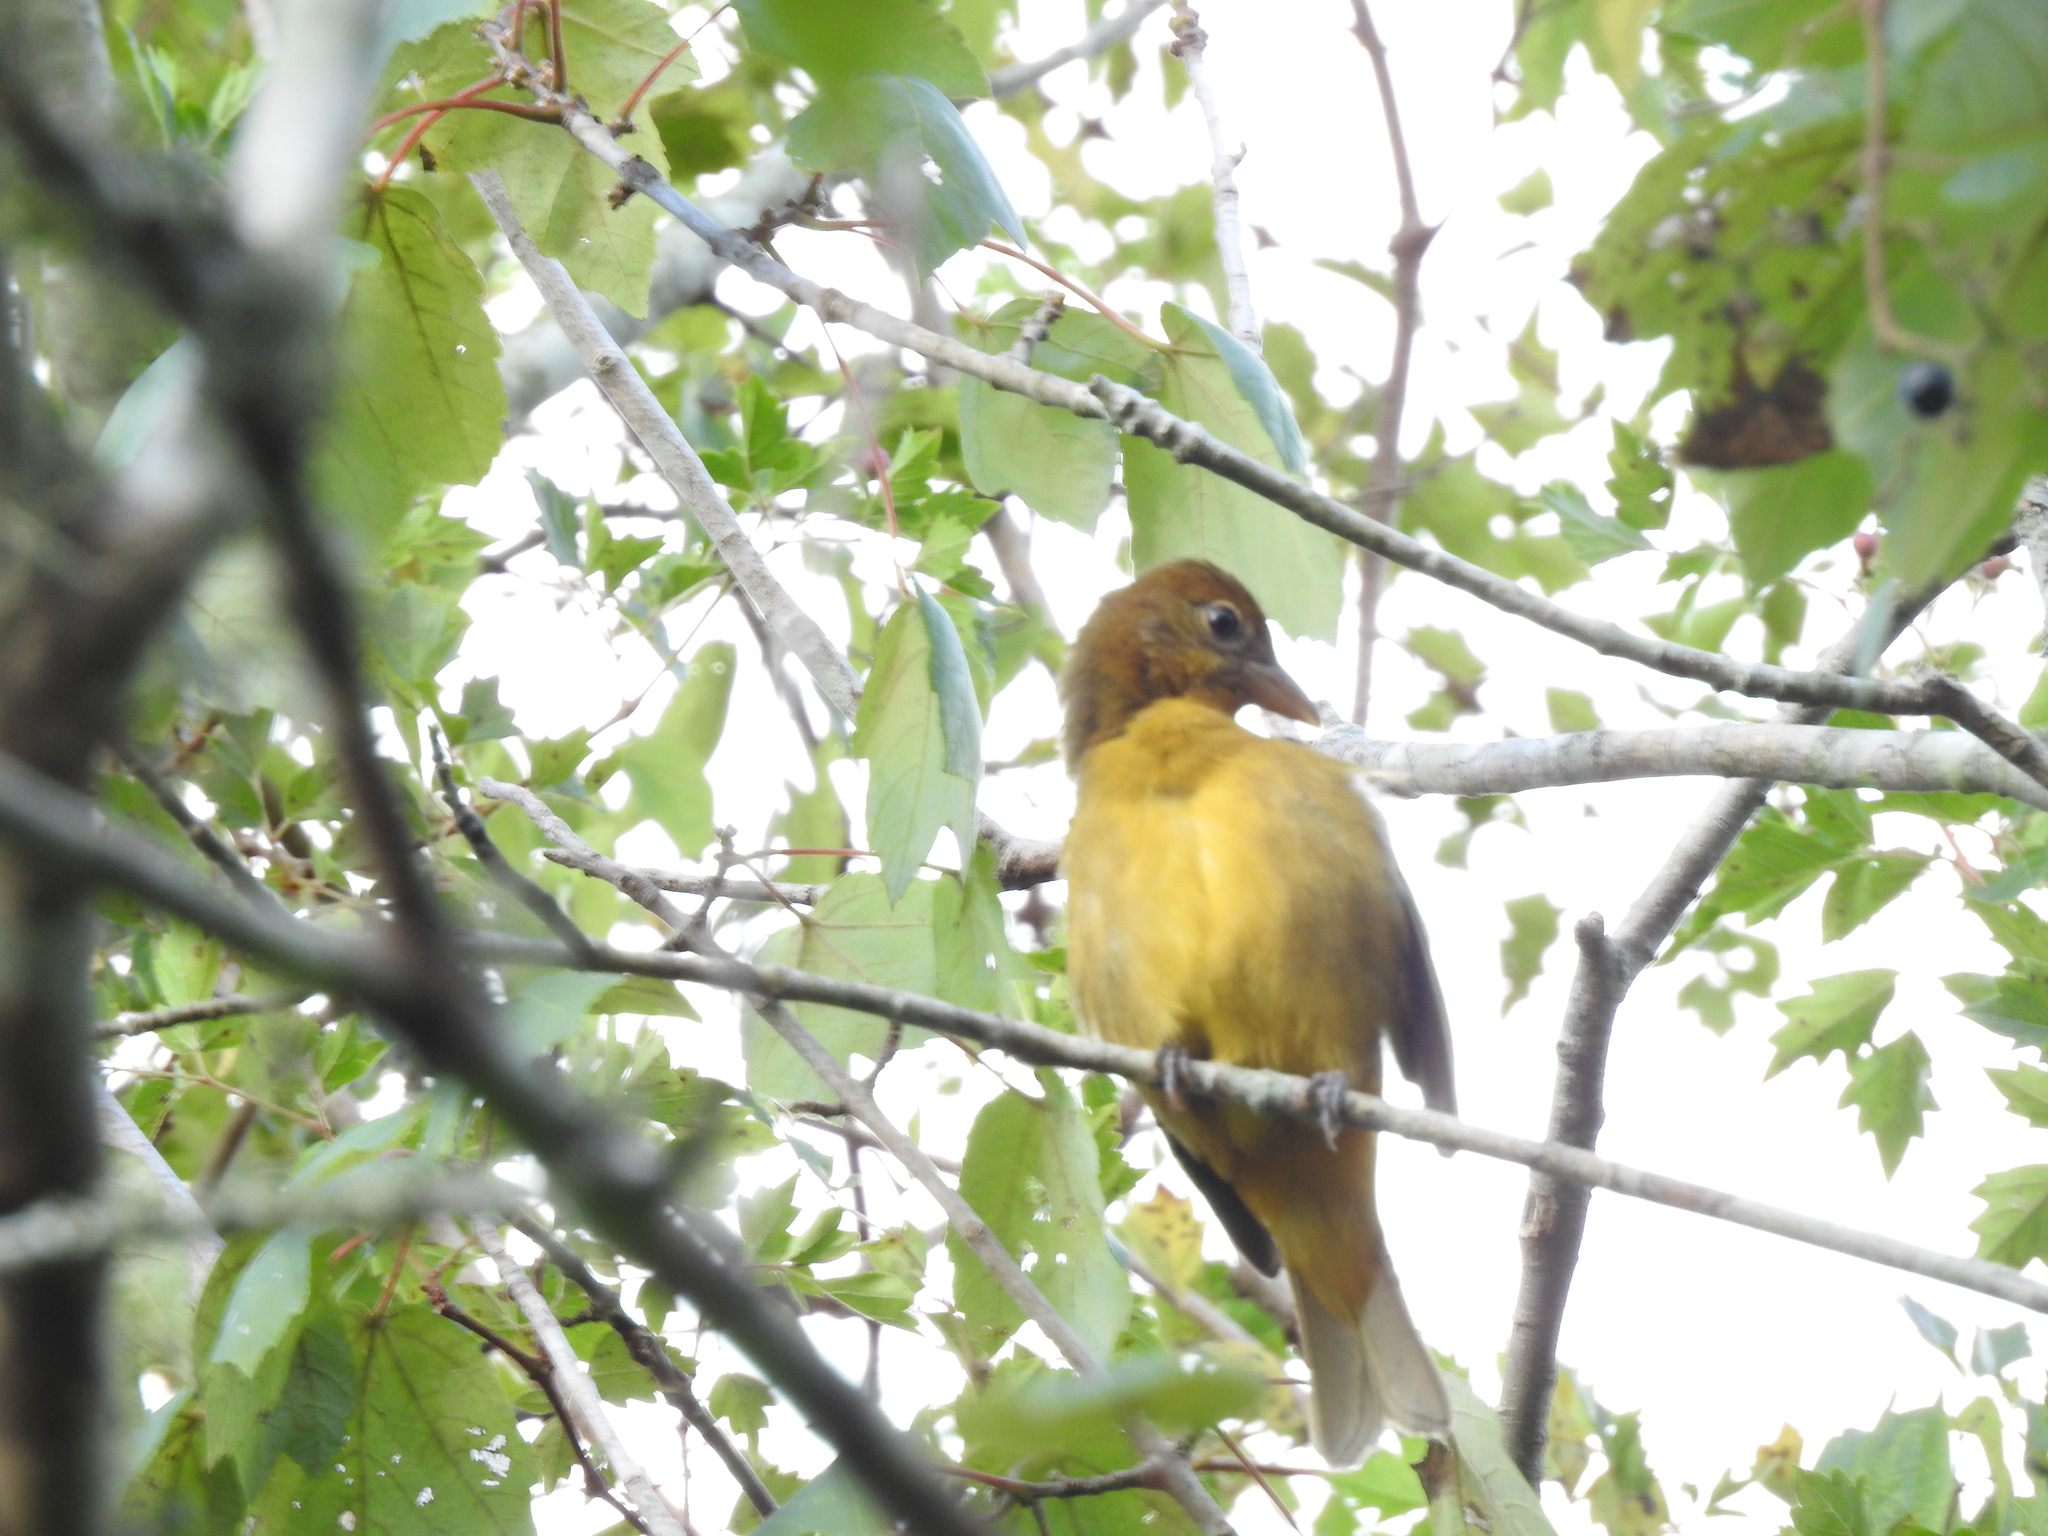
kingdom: Animalia
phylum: Chordata
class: Aves
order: Passeriformes
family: Cardinalidae
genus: Piranga
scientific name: Piranga rubra
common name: Summer tanager
